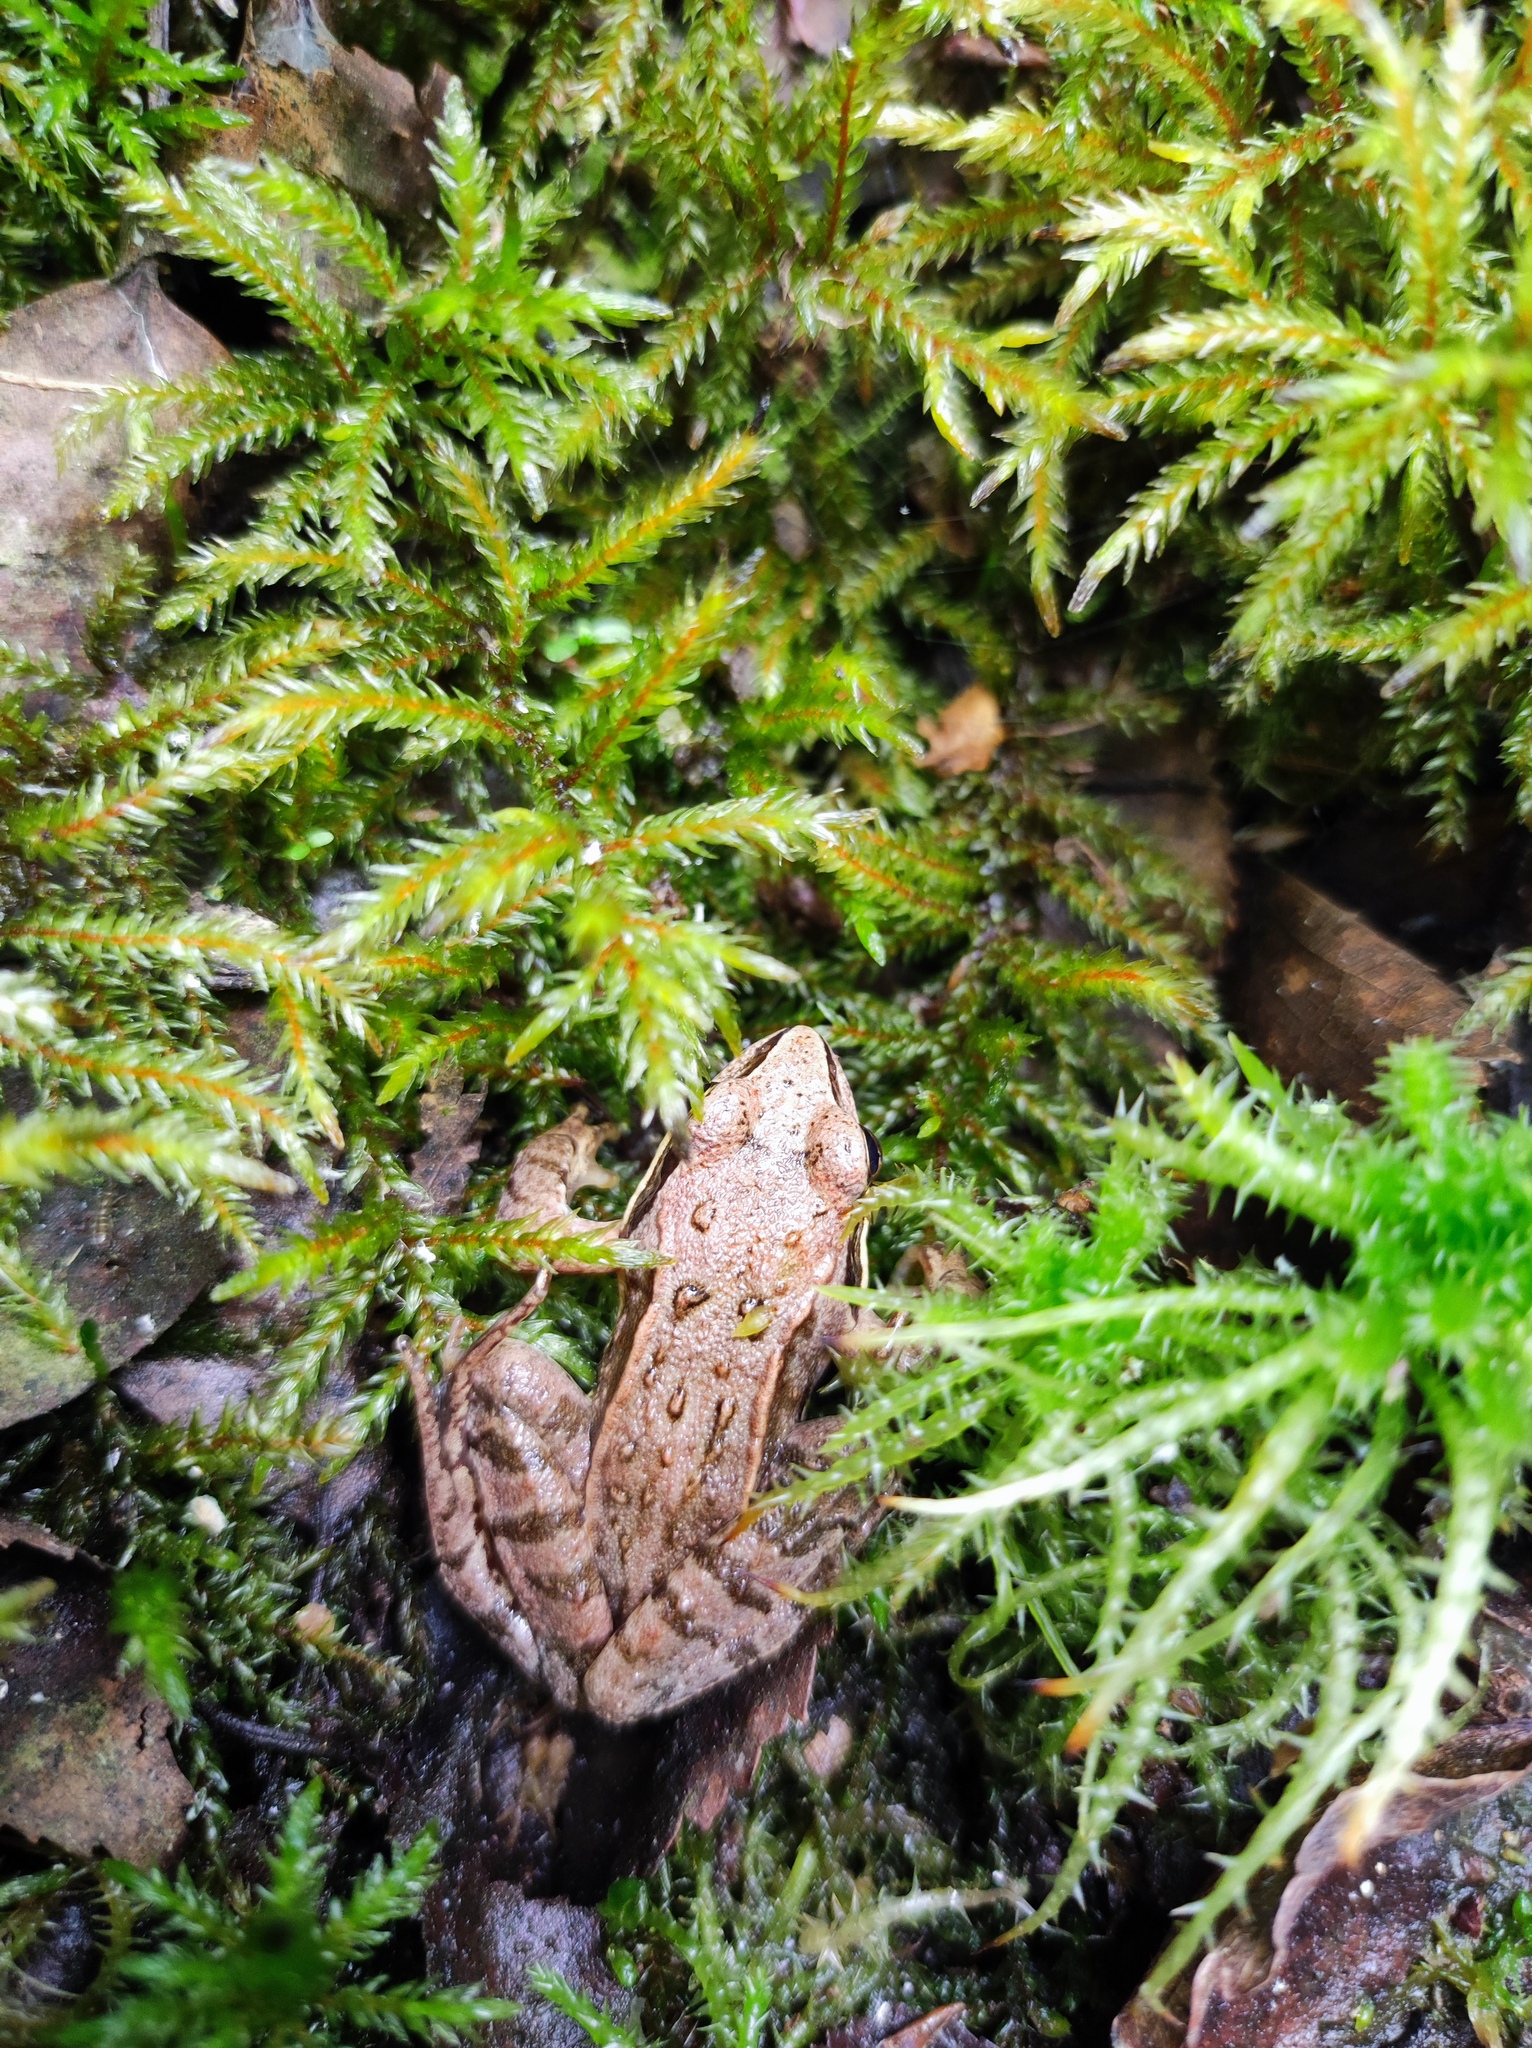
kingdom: Animalia
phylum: Chordata
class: Amphibia
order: Anura
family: Ranidae
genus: Rana
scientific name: Rana arvalis
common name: Moor frog
